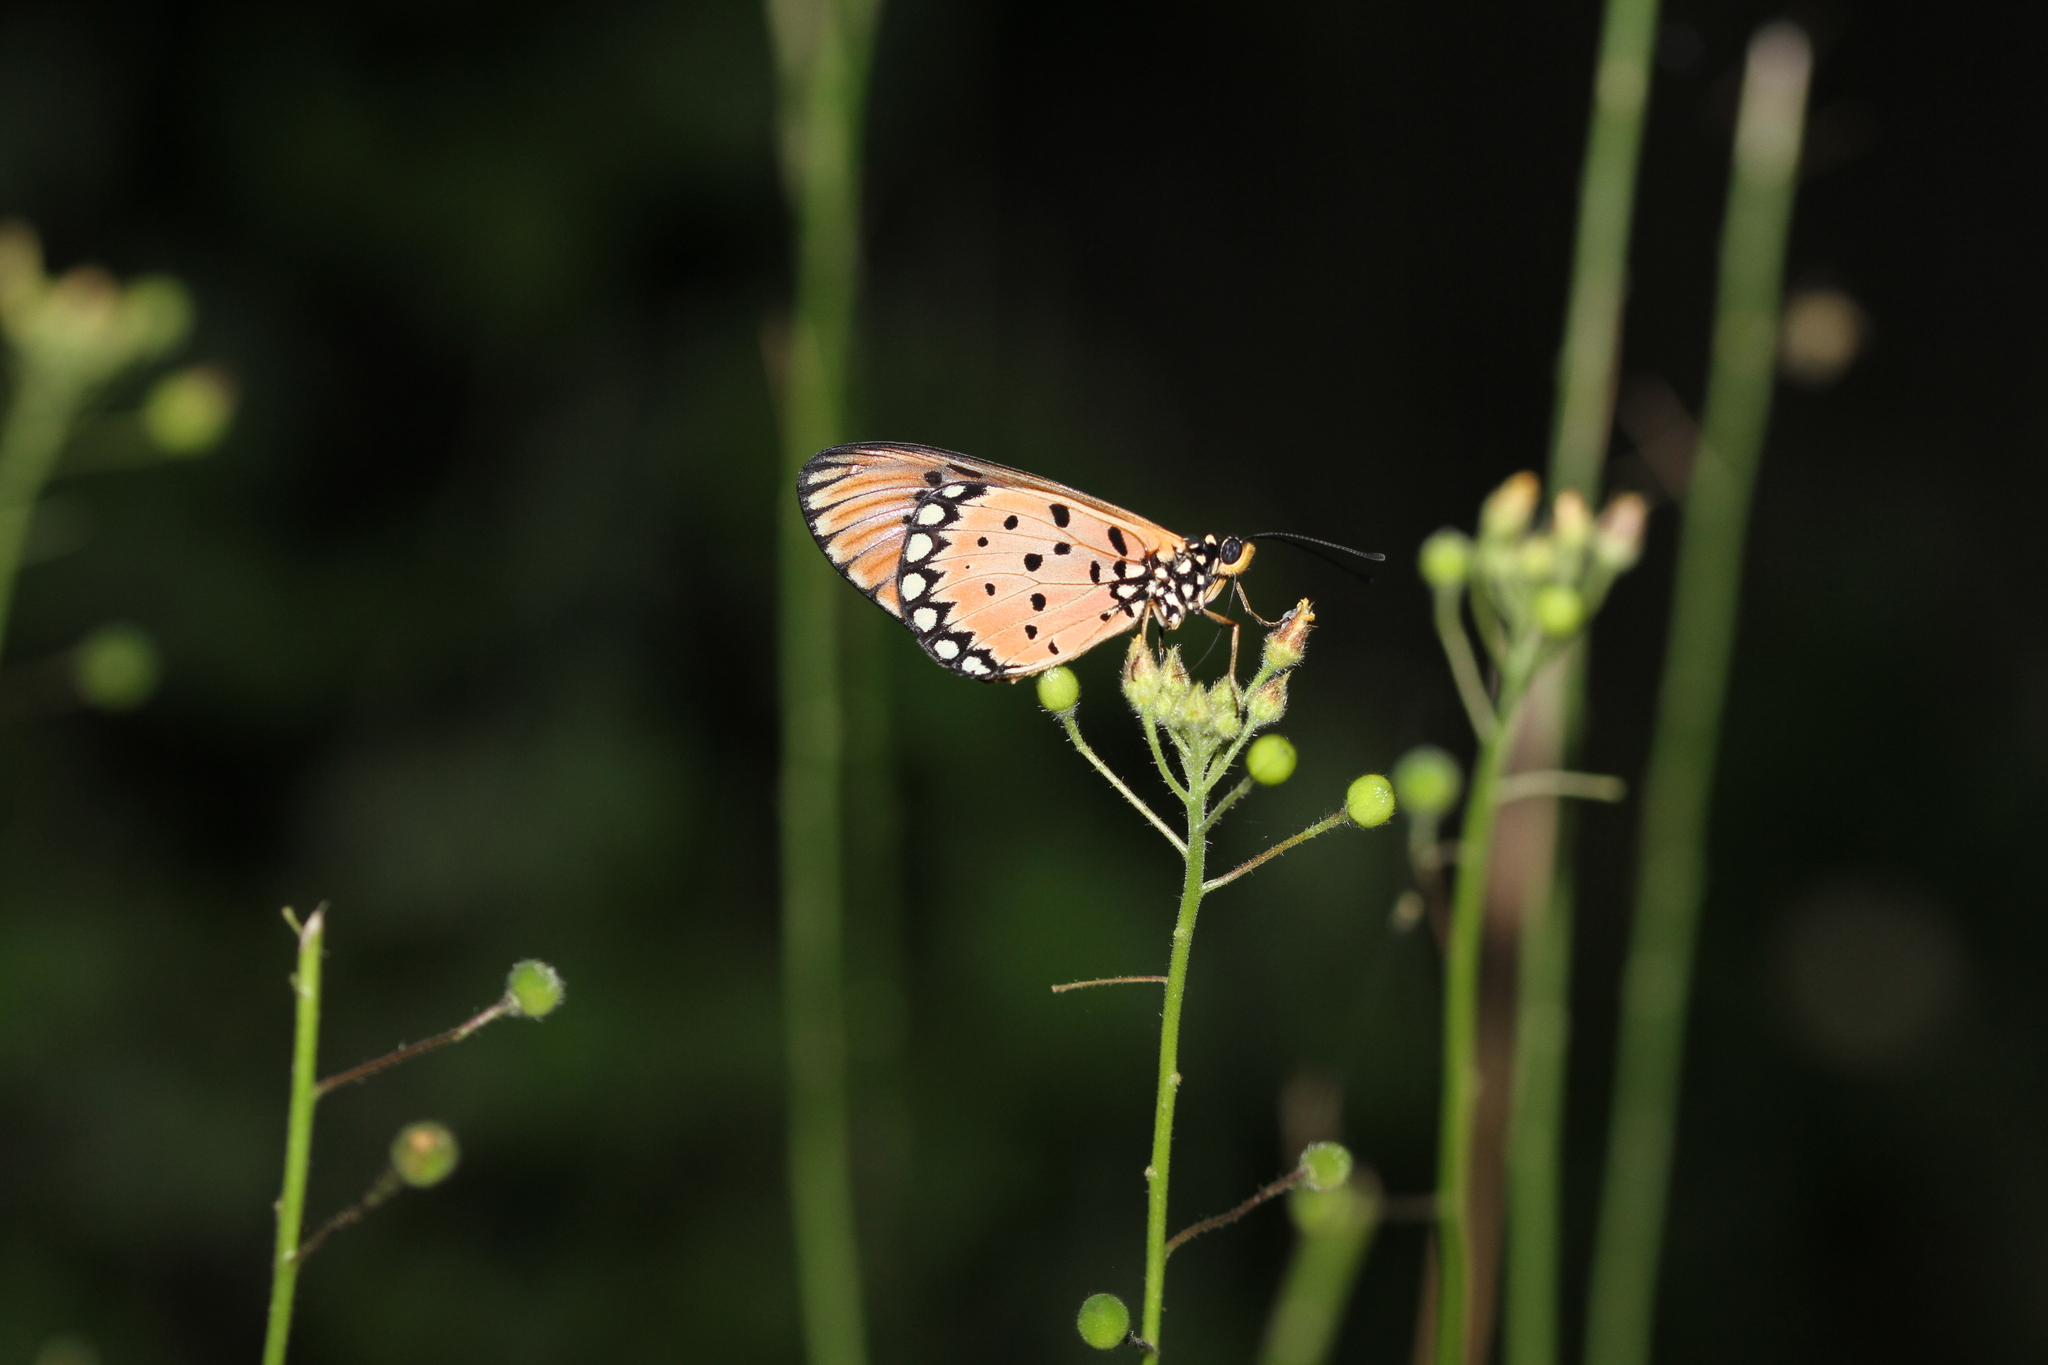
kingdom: Animalia
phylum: Arthropoda
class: Insecta
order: Lepidoptera
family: Nymphalidae
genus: Acraea
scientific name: Acraea terpsicore
